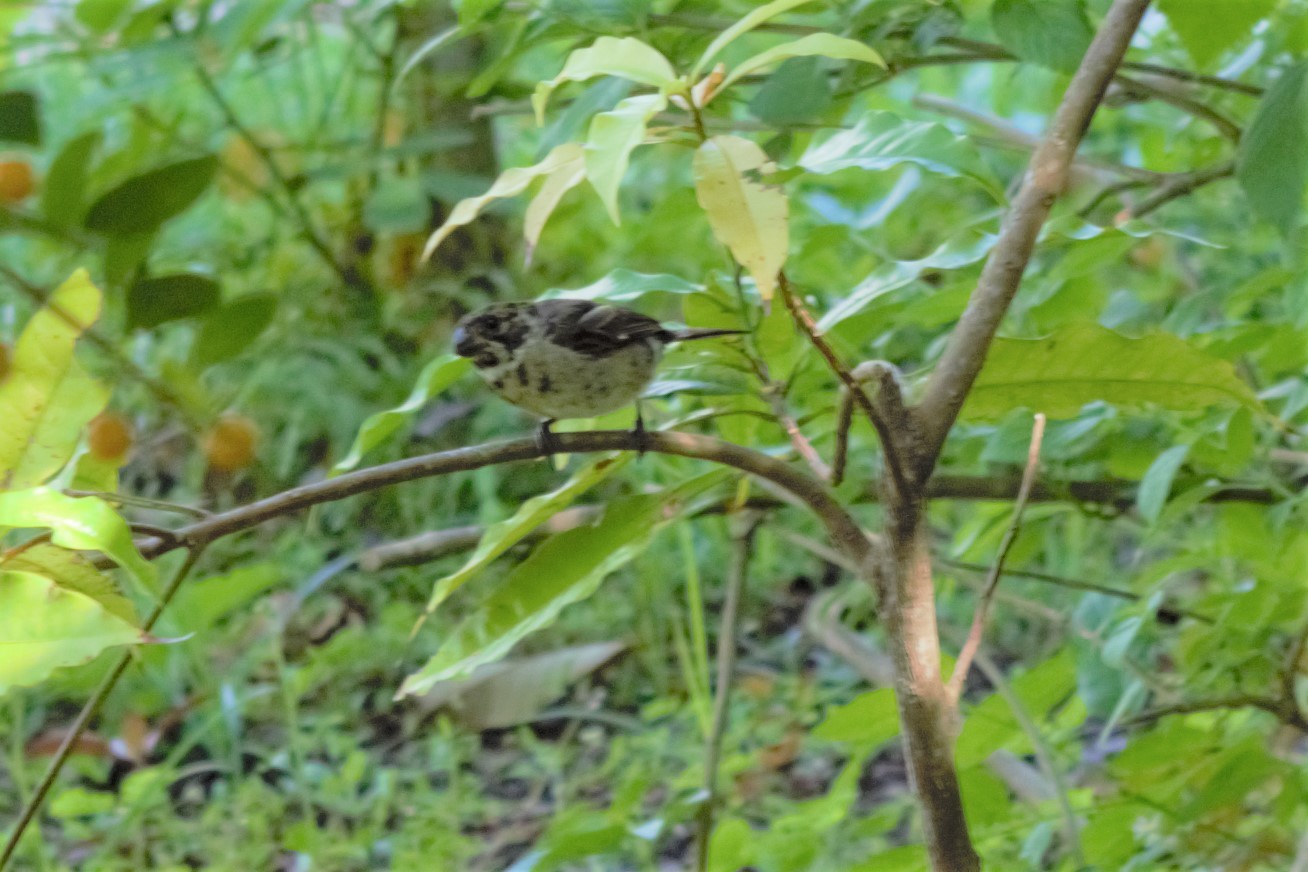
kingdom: Animalia
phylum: Chordata
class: Aves
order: Passeriformes
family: Thraupidae
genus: Sporophila
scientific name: Sporophila corvina
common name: Variable seedeater
